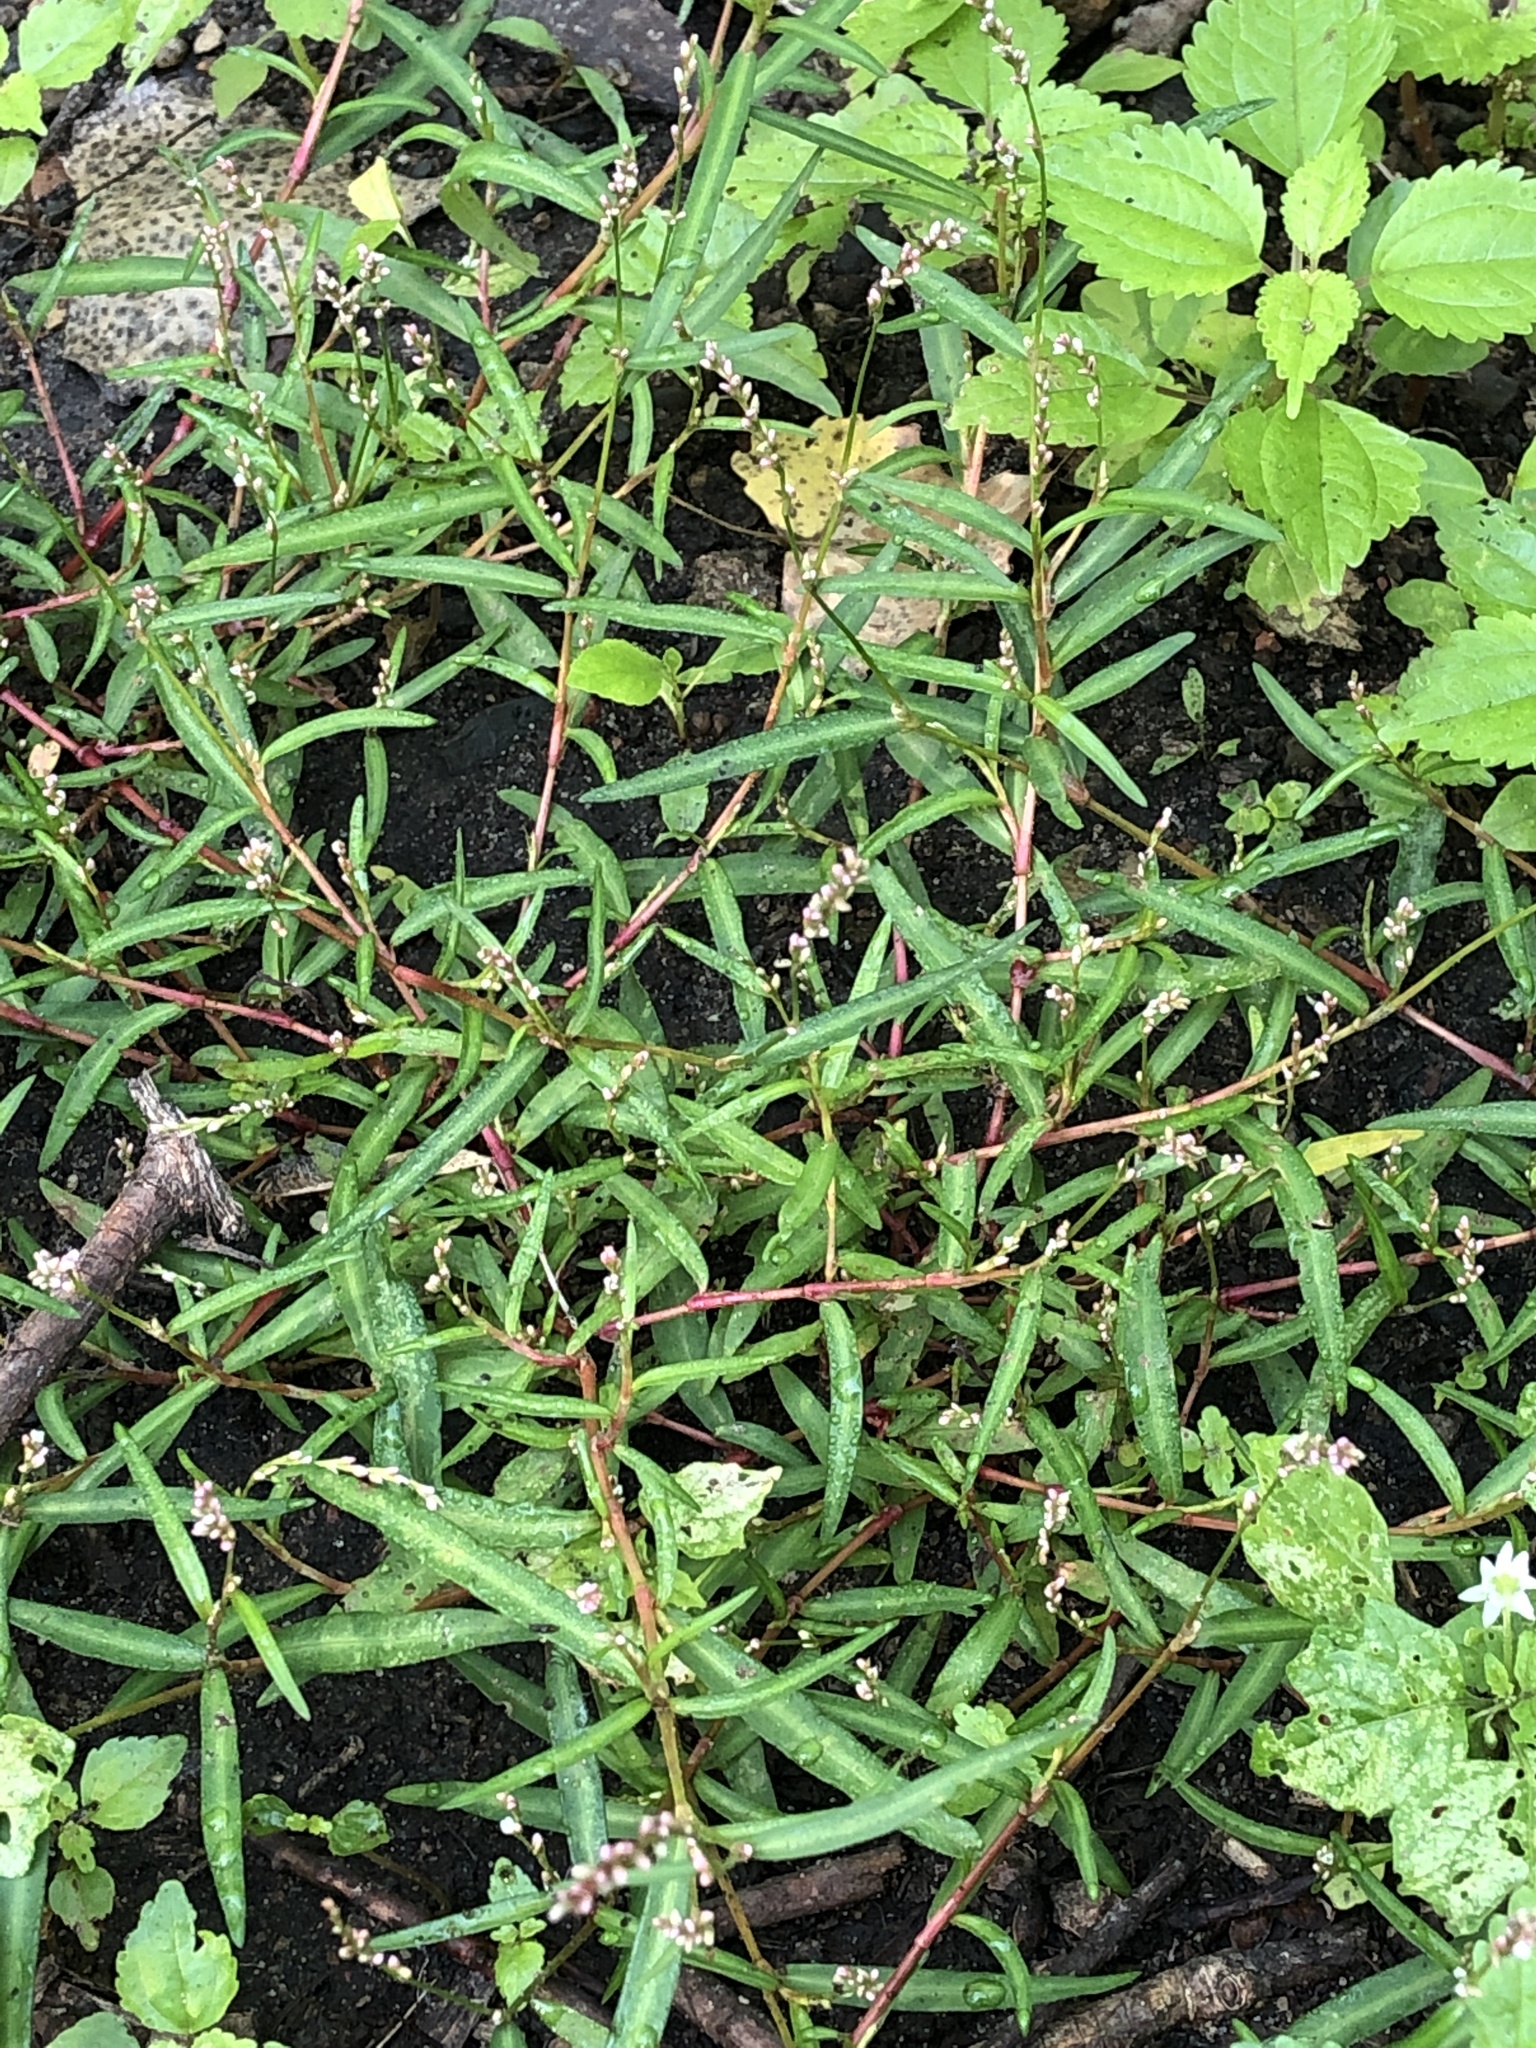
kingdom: Plantae
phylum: Tracheophyta
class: Magnoliopsida
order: Caryophyllales
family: Polygonaceae
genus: Persicaria
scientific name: Persicaria minor
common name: Small water-pepper
